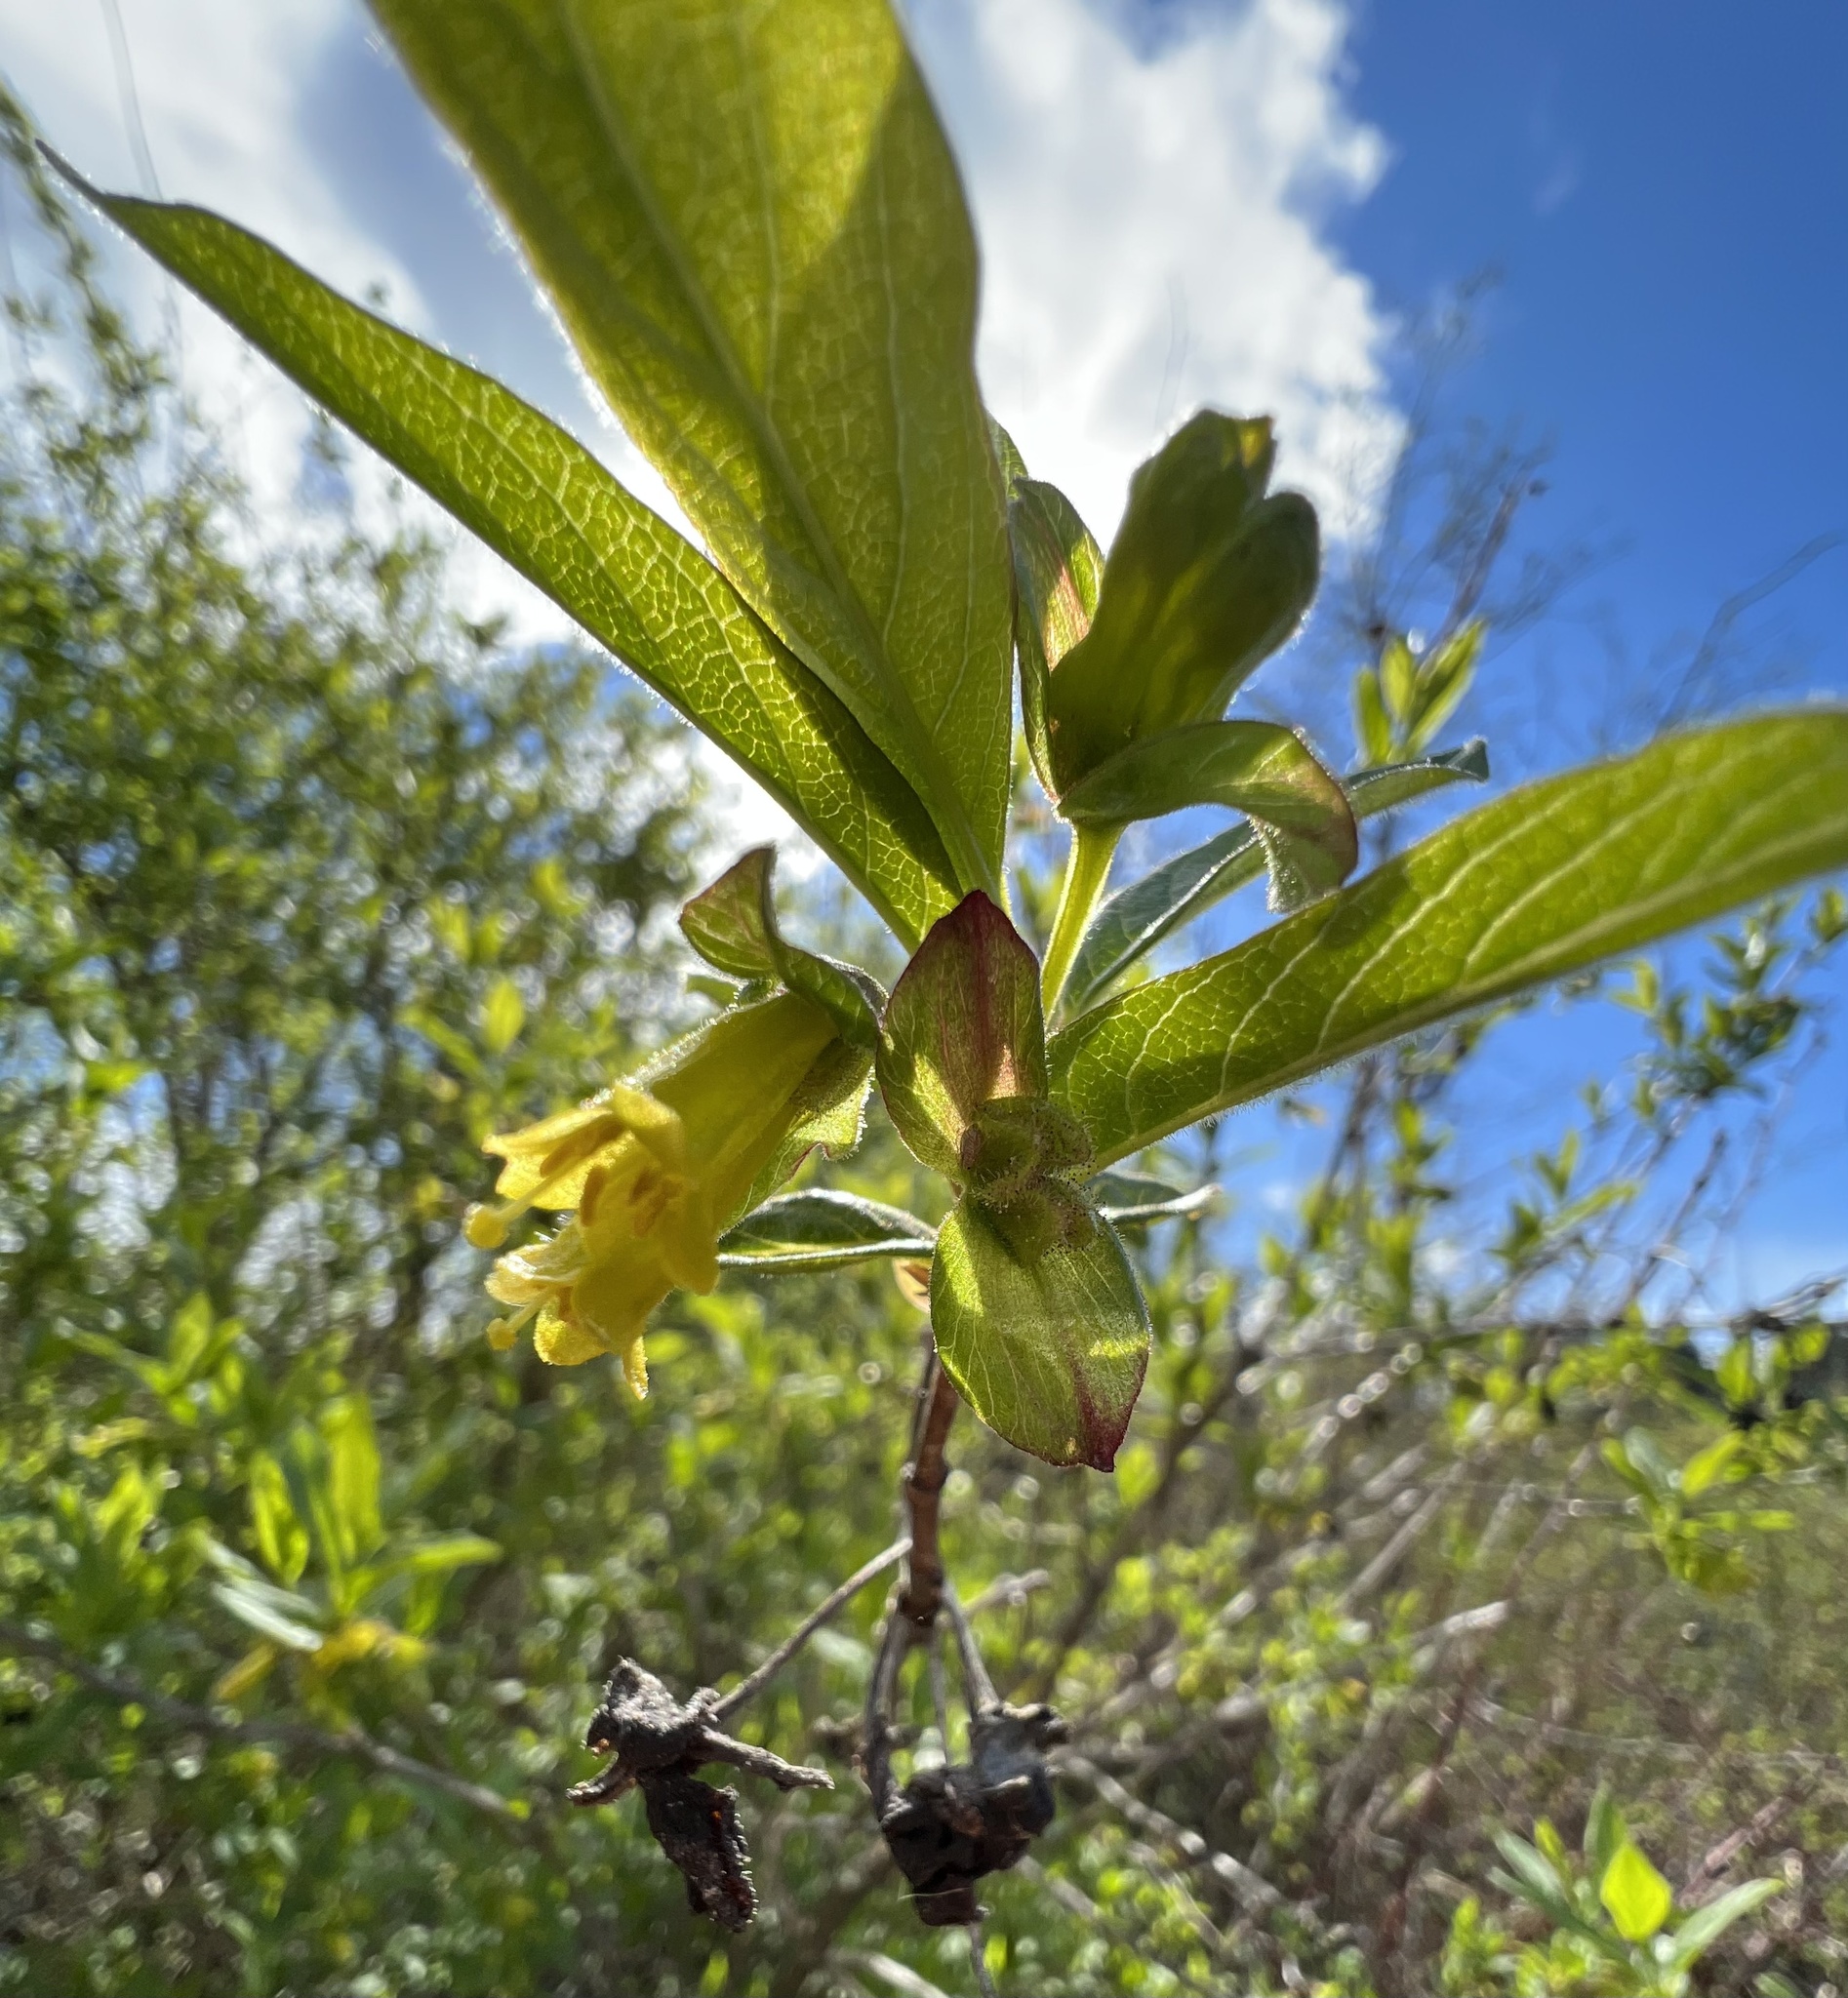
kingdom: Plantae
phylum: Tracheophyta
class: Magnoliopsida
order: Dipsacales
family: Caprifoliaceae
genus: Lonicera
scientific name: Lonicera involucrata
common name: Californian honeysuckle
